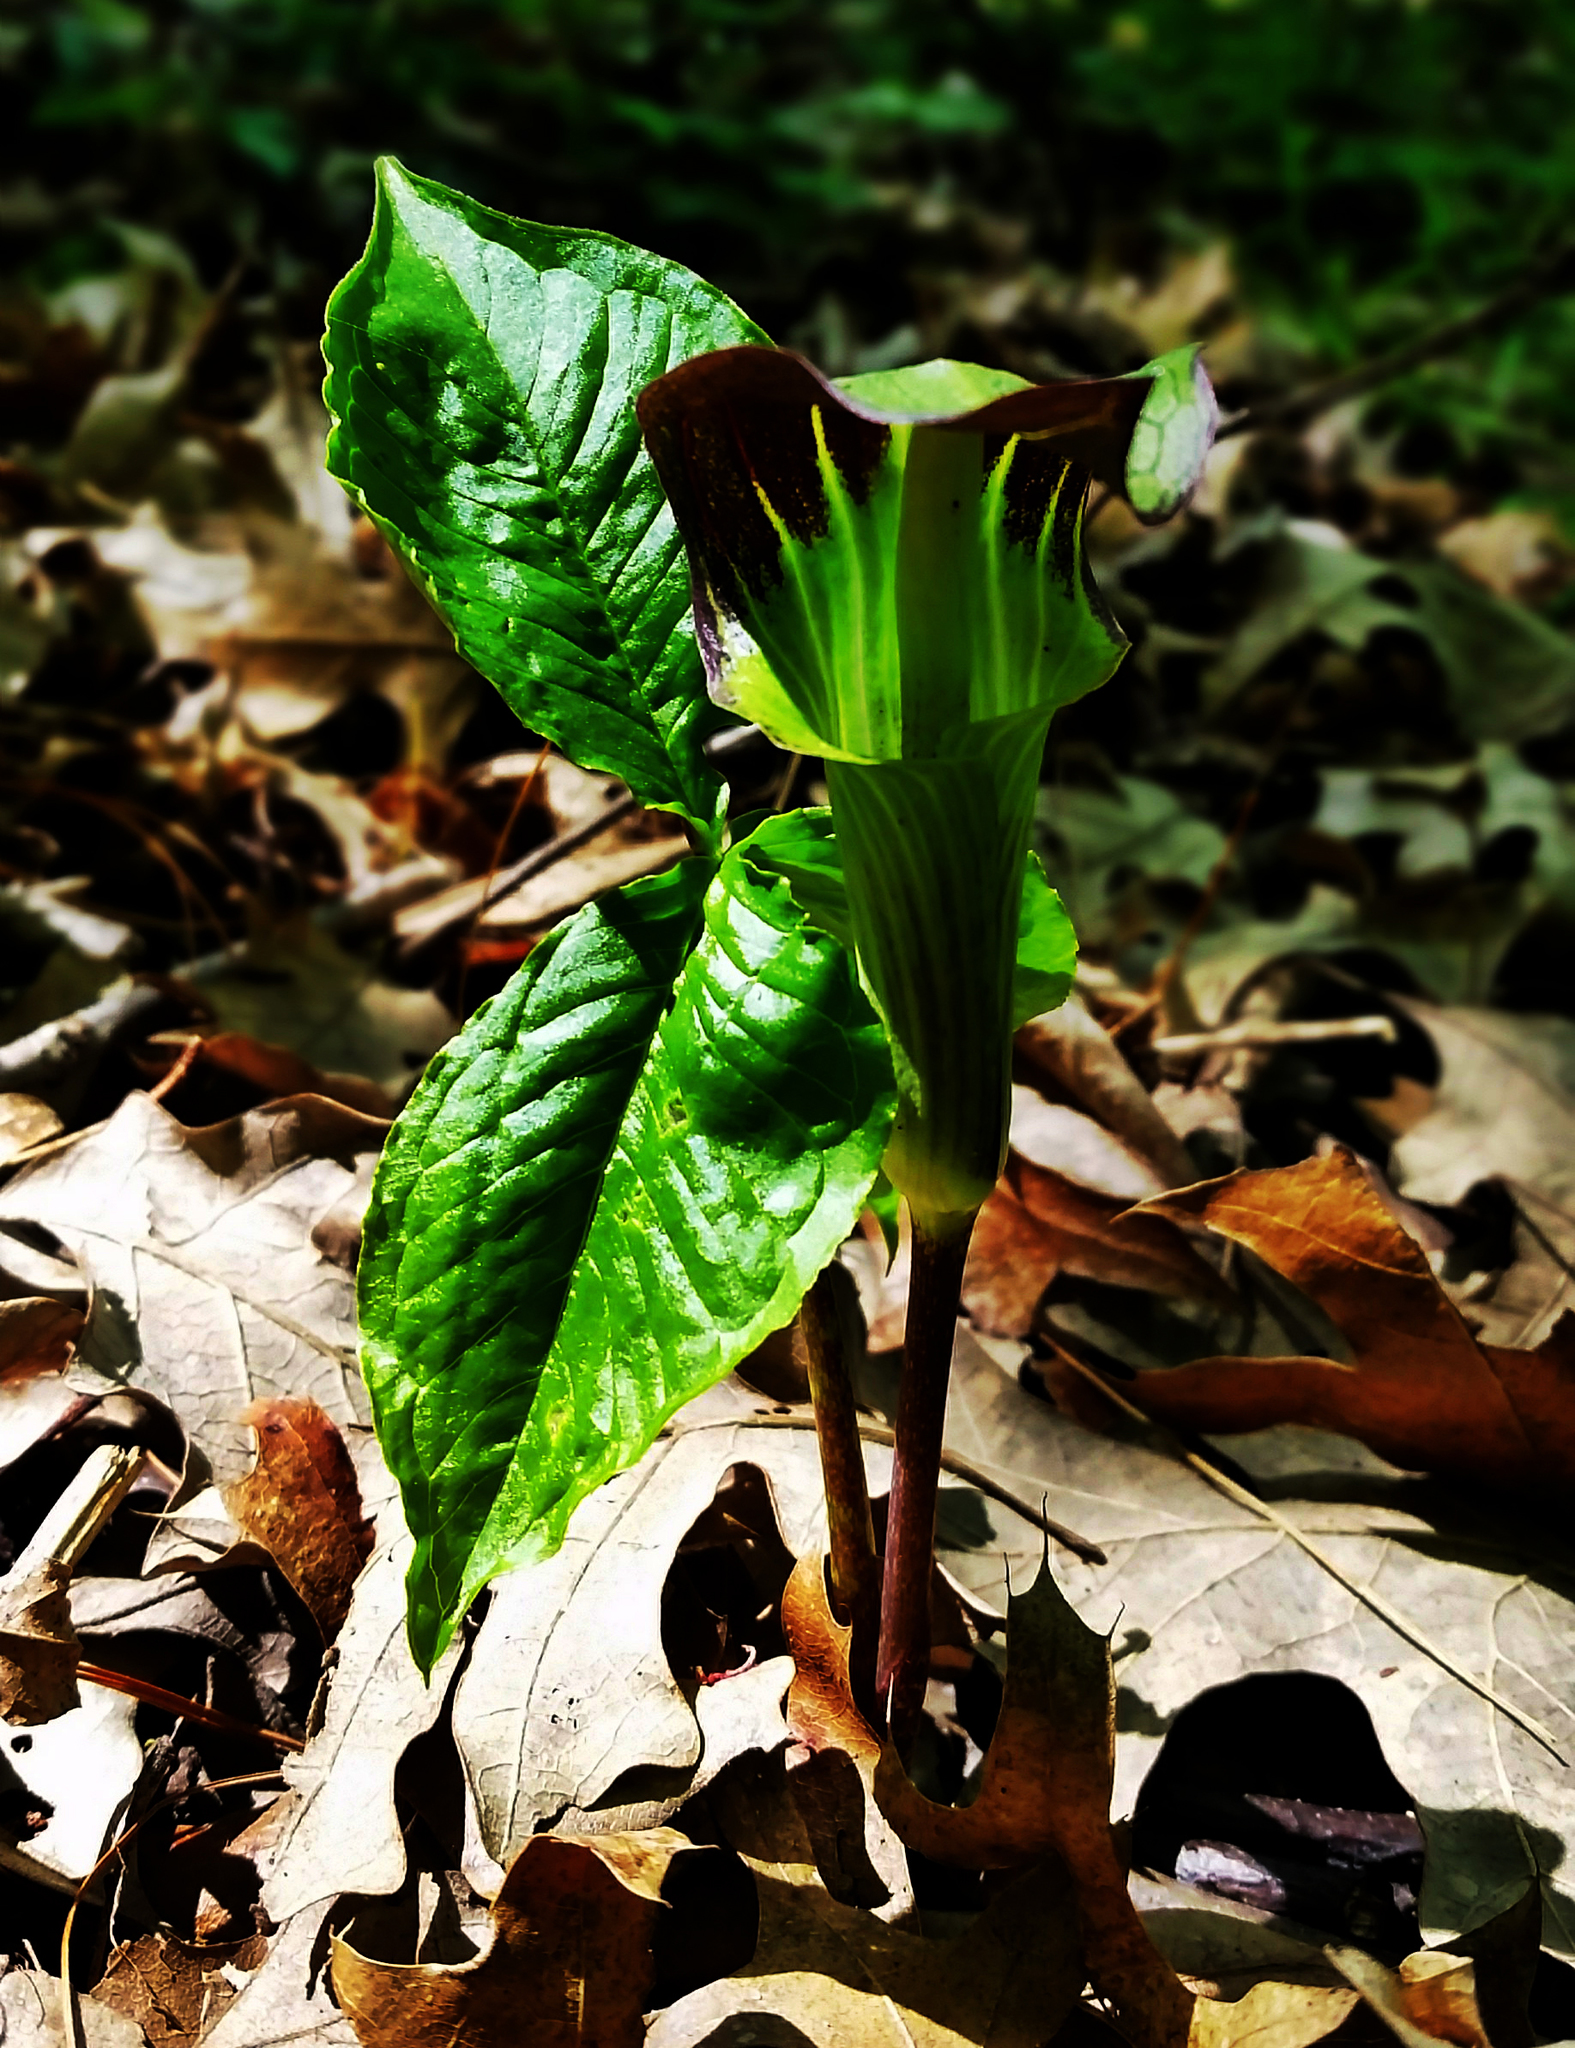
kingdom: Plantae
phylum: Tracheophyta
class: Liliopsida
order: Alismatales
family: Araceae
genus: Arisaema
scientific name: Arisaema triphyllum
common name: Jack-in-the-pulpit
